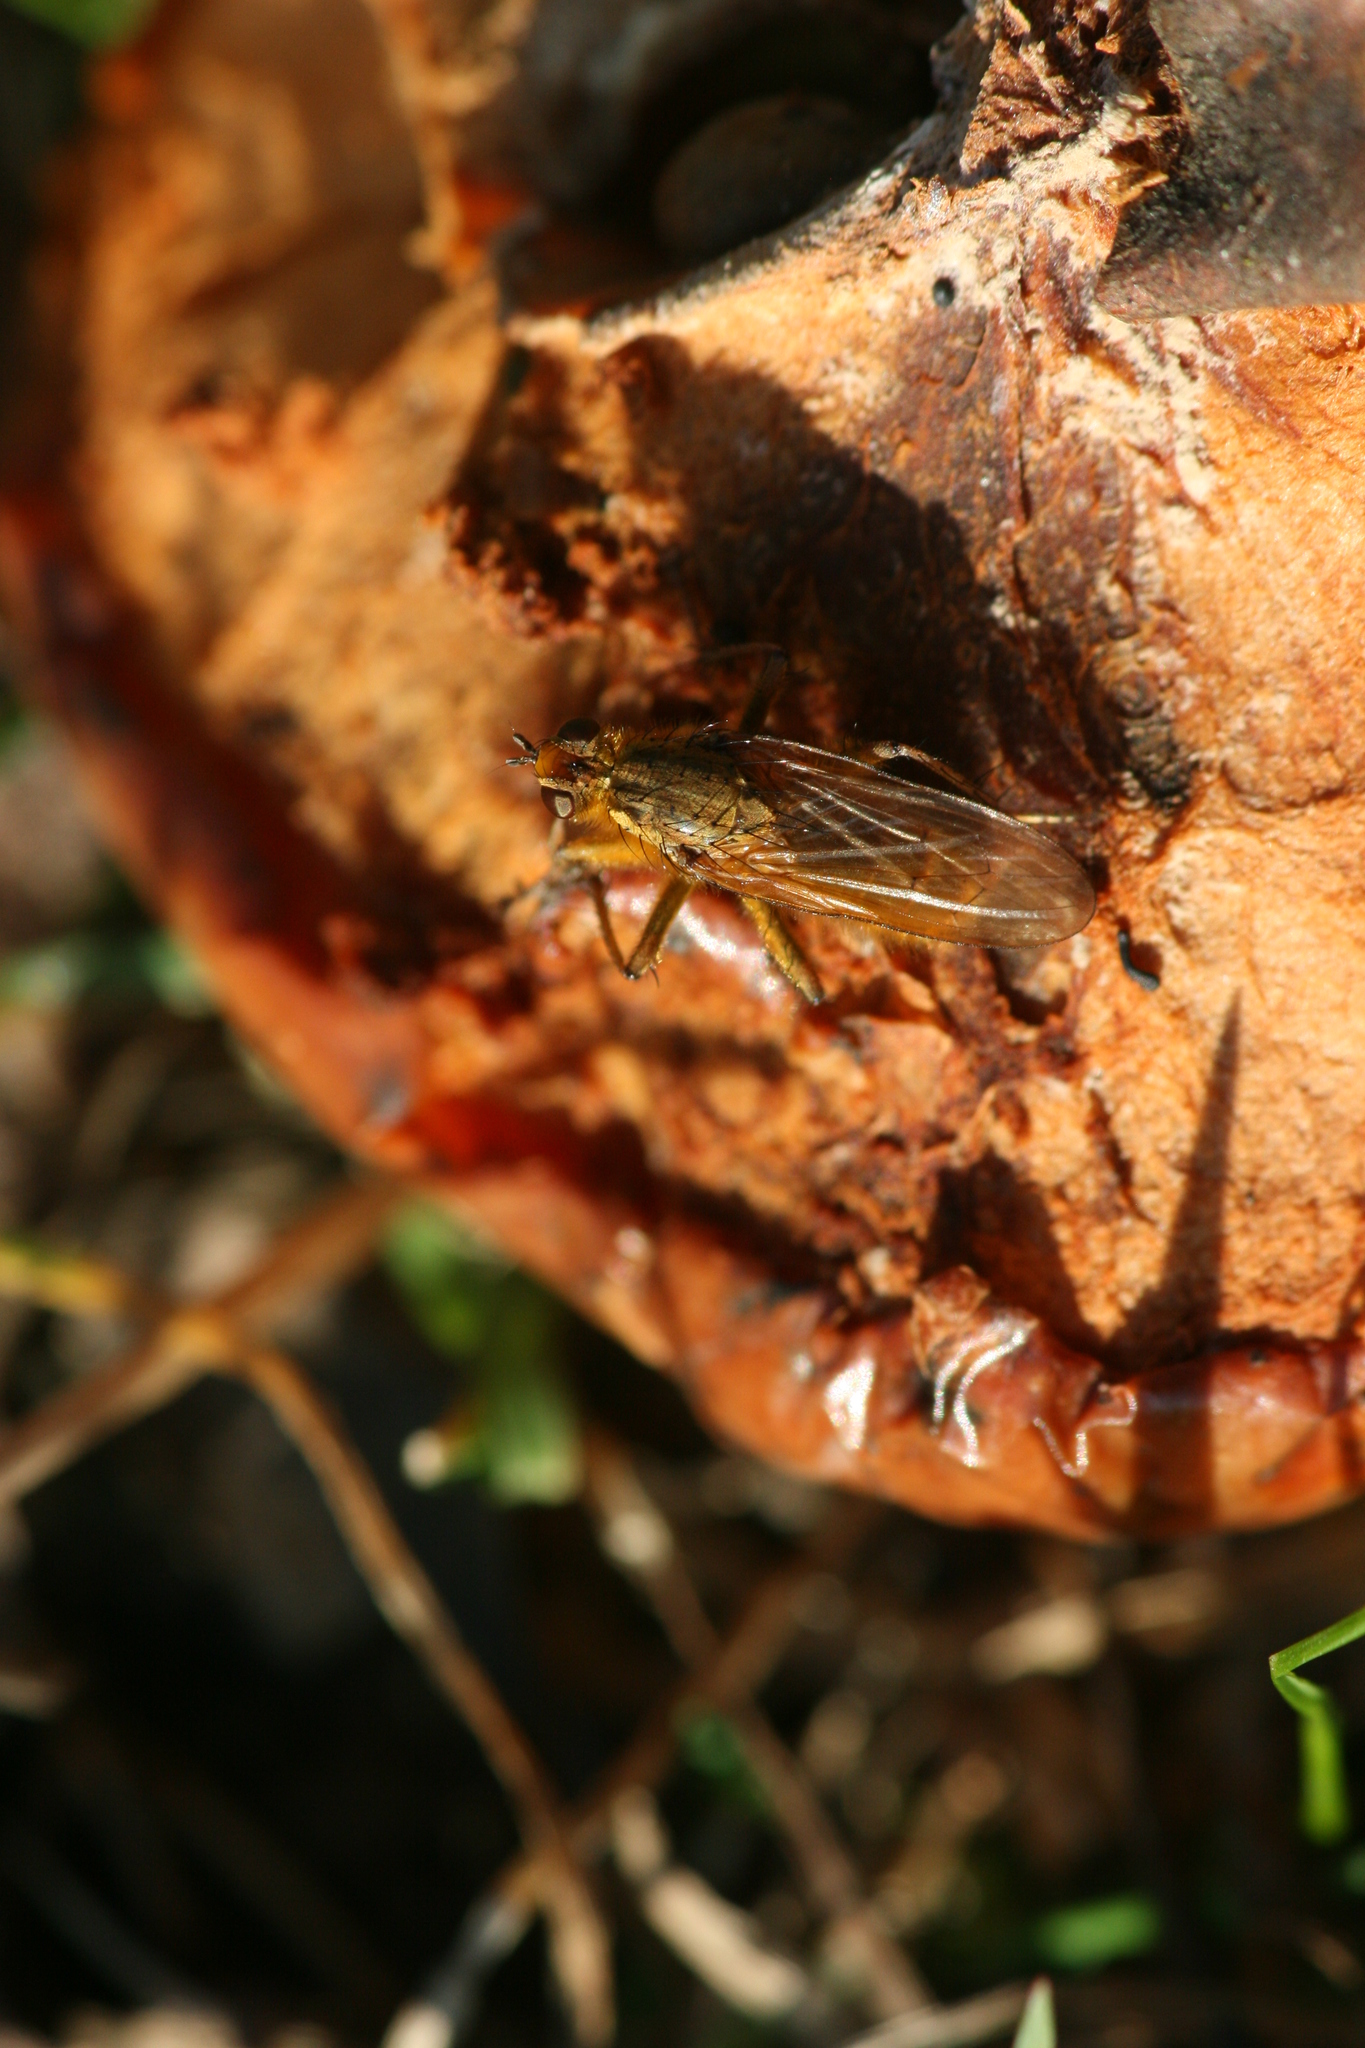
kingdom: Animalia
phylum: Arthropoda
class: Insecta
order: Diptera
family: Scathophagidae
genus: Scathophaga
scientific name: Scathophaga stercoraria
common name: Yellow dung fly
